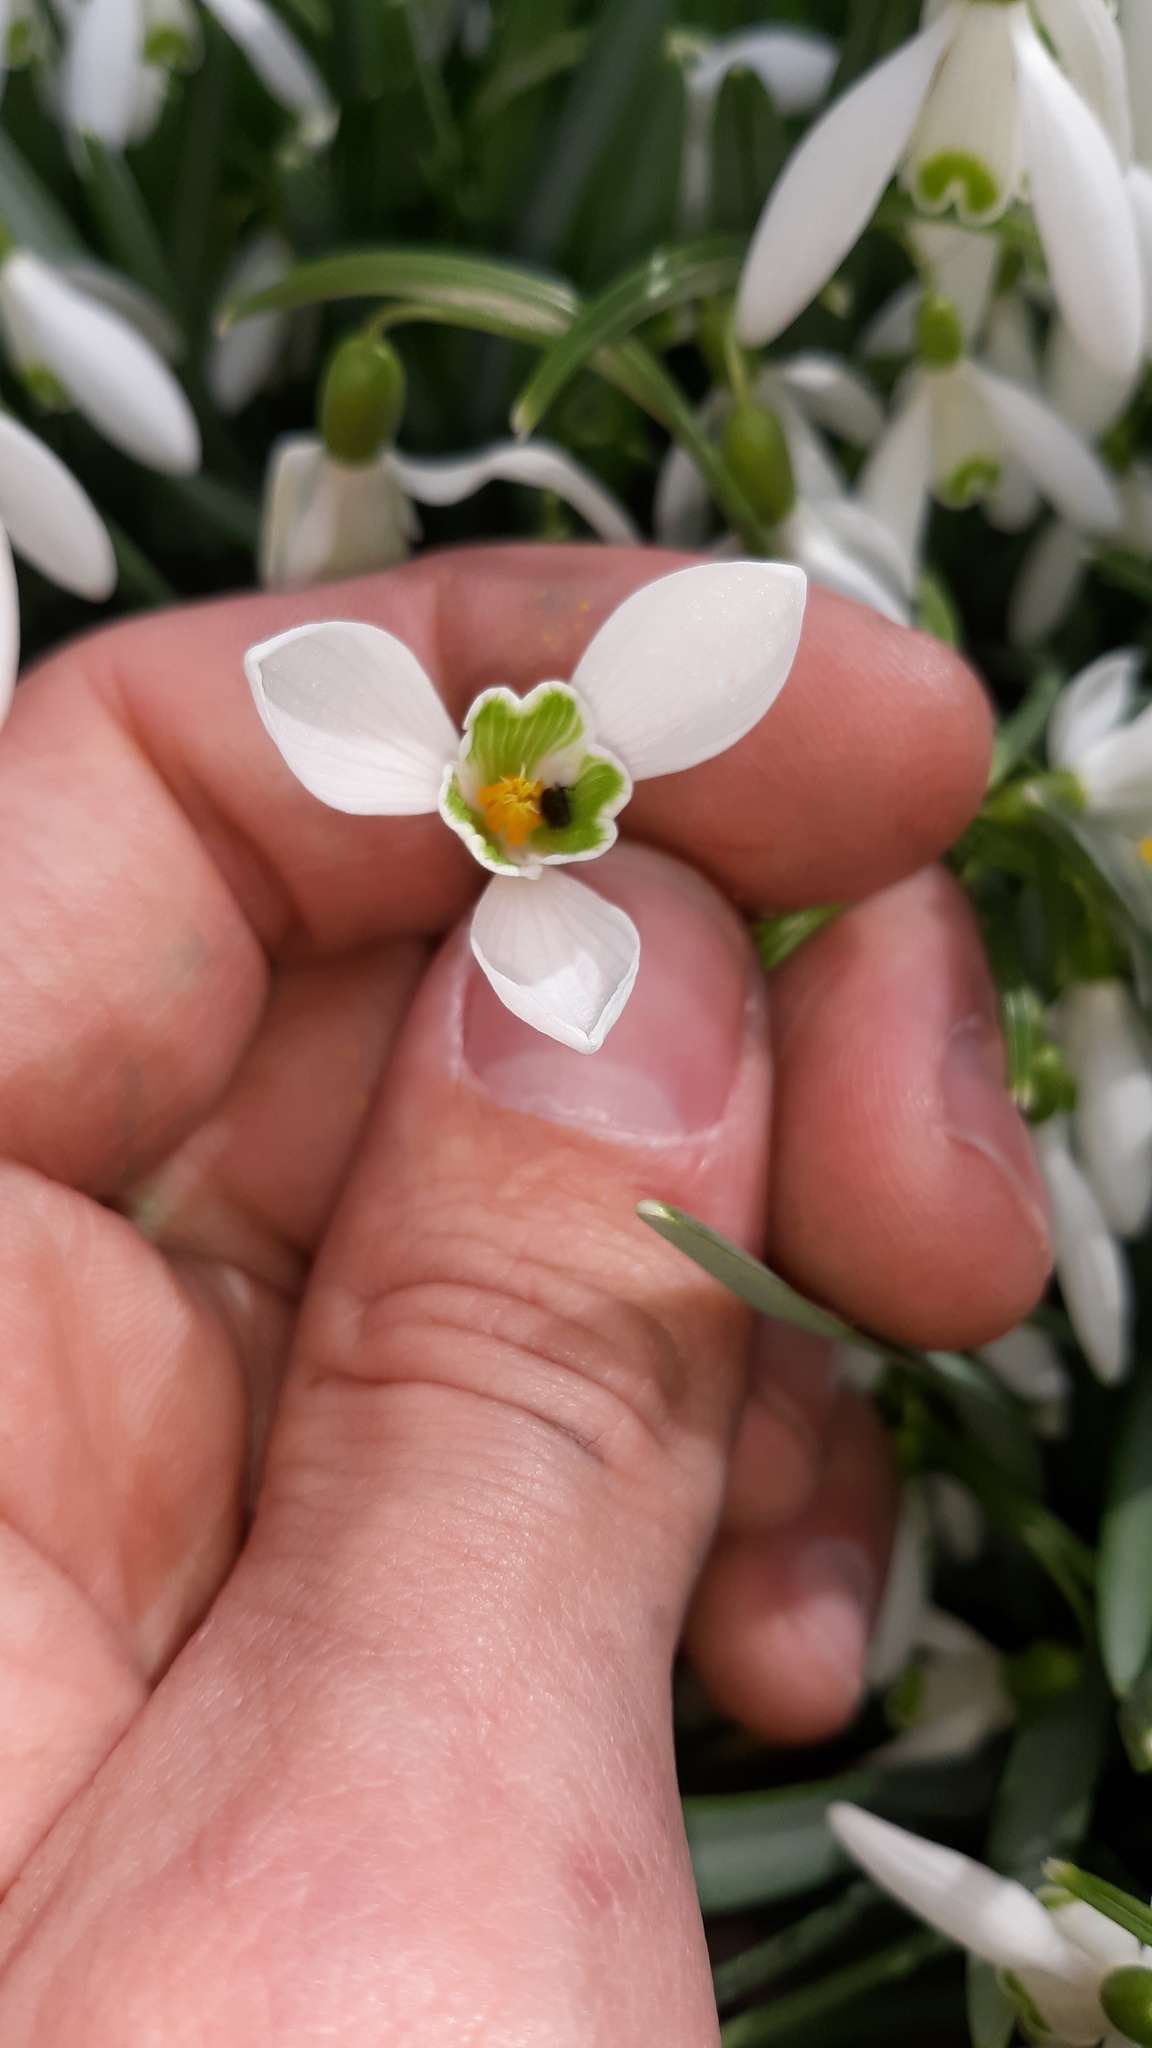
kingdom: Plantae
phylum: Tracheophyta
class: Liliopsida
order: Asparagales
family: Amaryllidaceae
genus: Galanthus
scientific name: Galanthus nivalis
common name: Snowdrop
